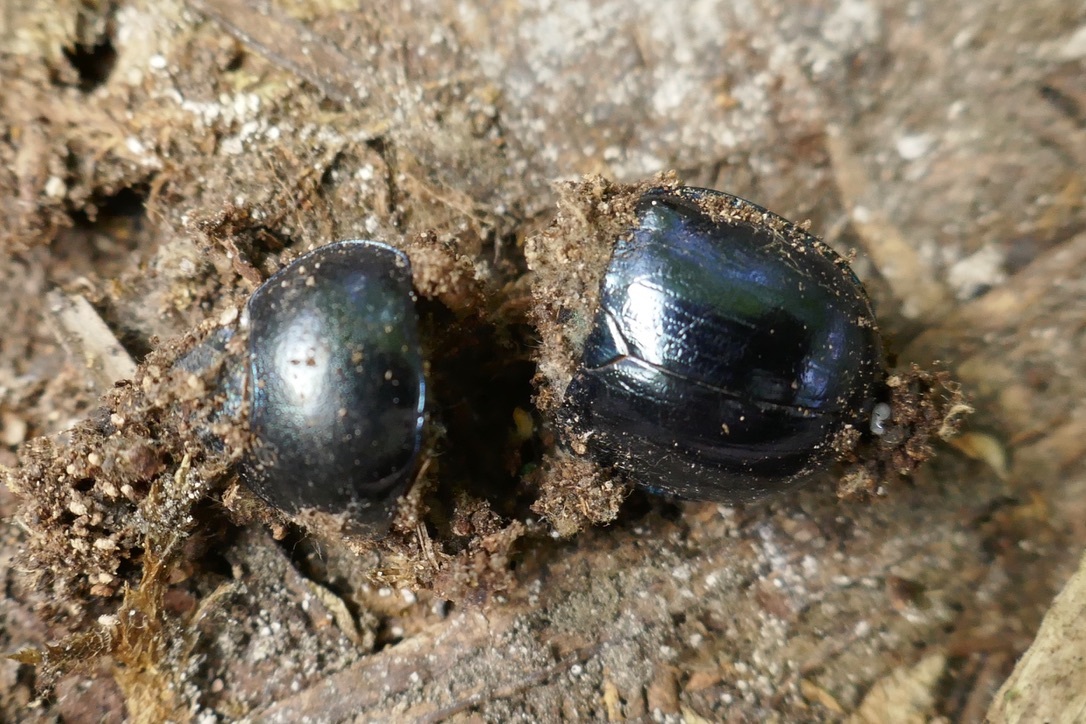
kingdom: Animalia
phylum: Arthropoda
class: Insecta
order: Coleoptera
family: Geotrupidae
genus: Trypocopris
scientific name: Trypocopris vernalis
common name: Spring dumbledor
